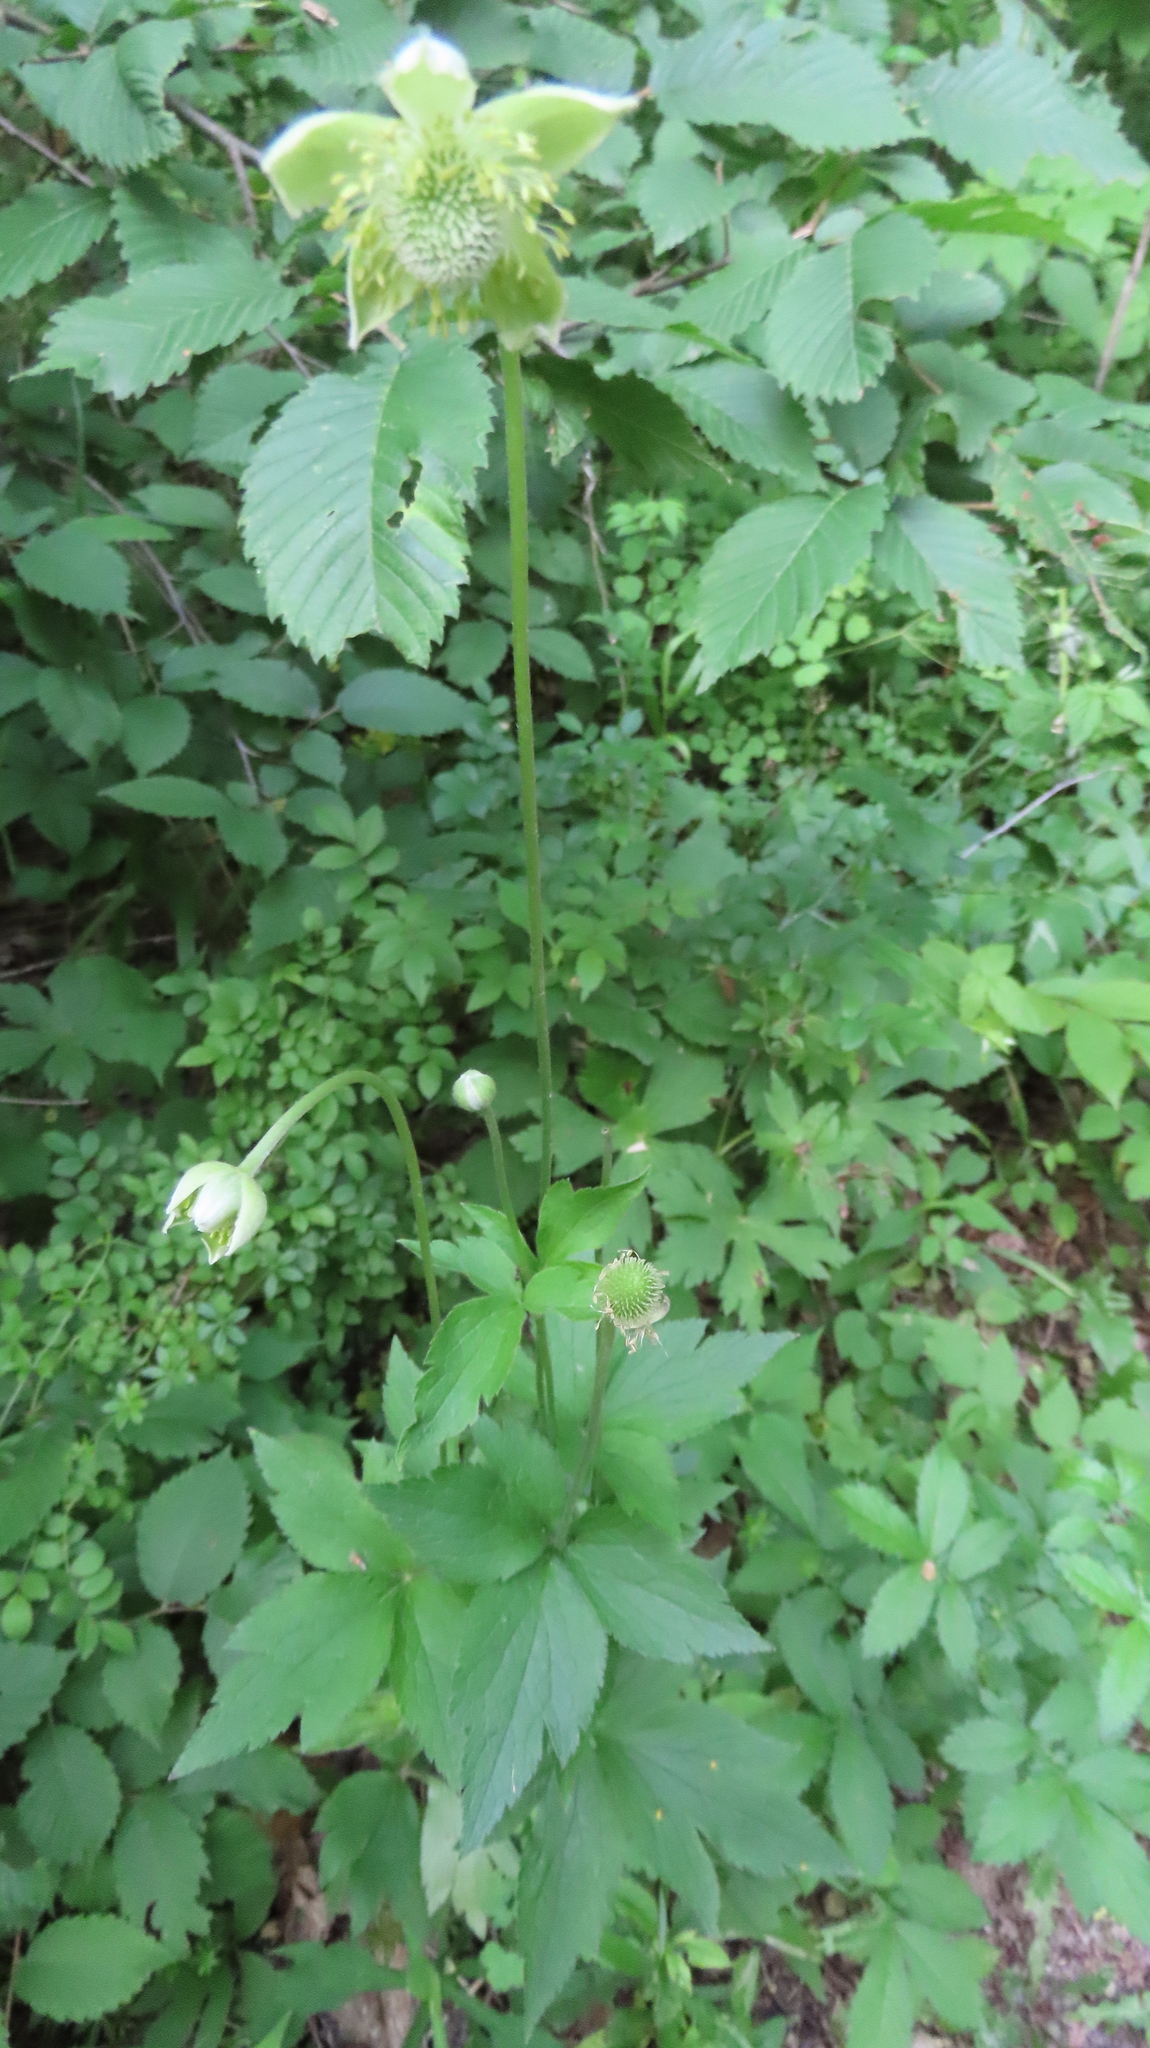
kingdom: Plantae
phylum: Tracheophyta
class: Magnoliopsida
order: Ranunculales
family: Ranunculaceae
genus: Anemone
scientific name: Anemone virginiana
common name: Tall anemone
